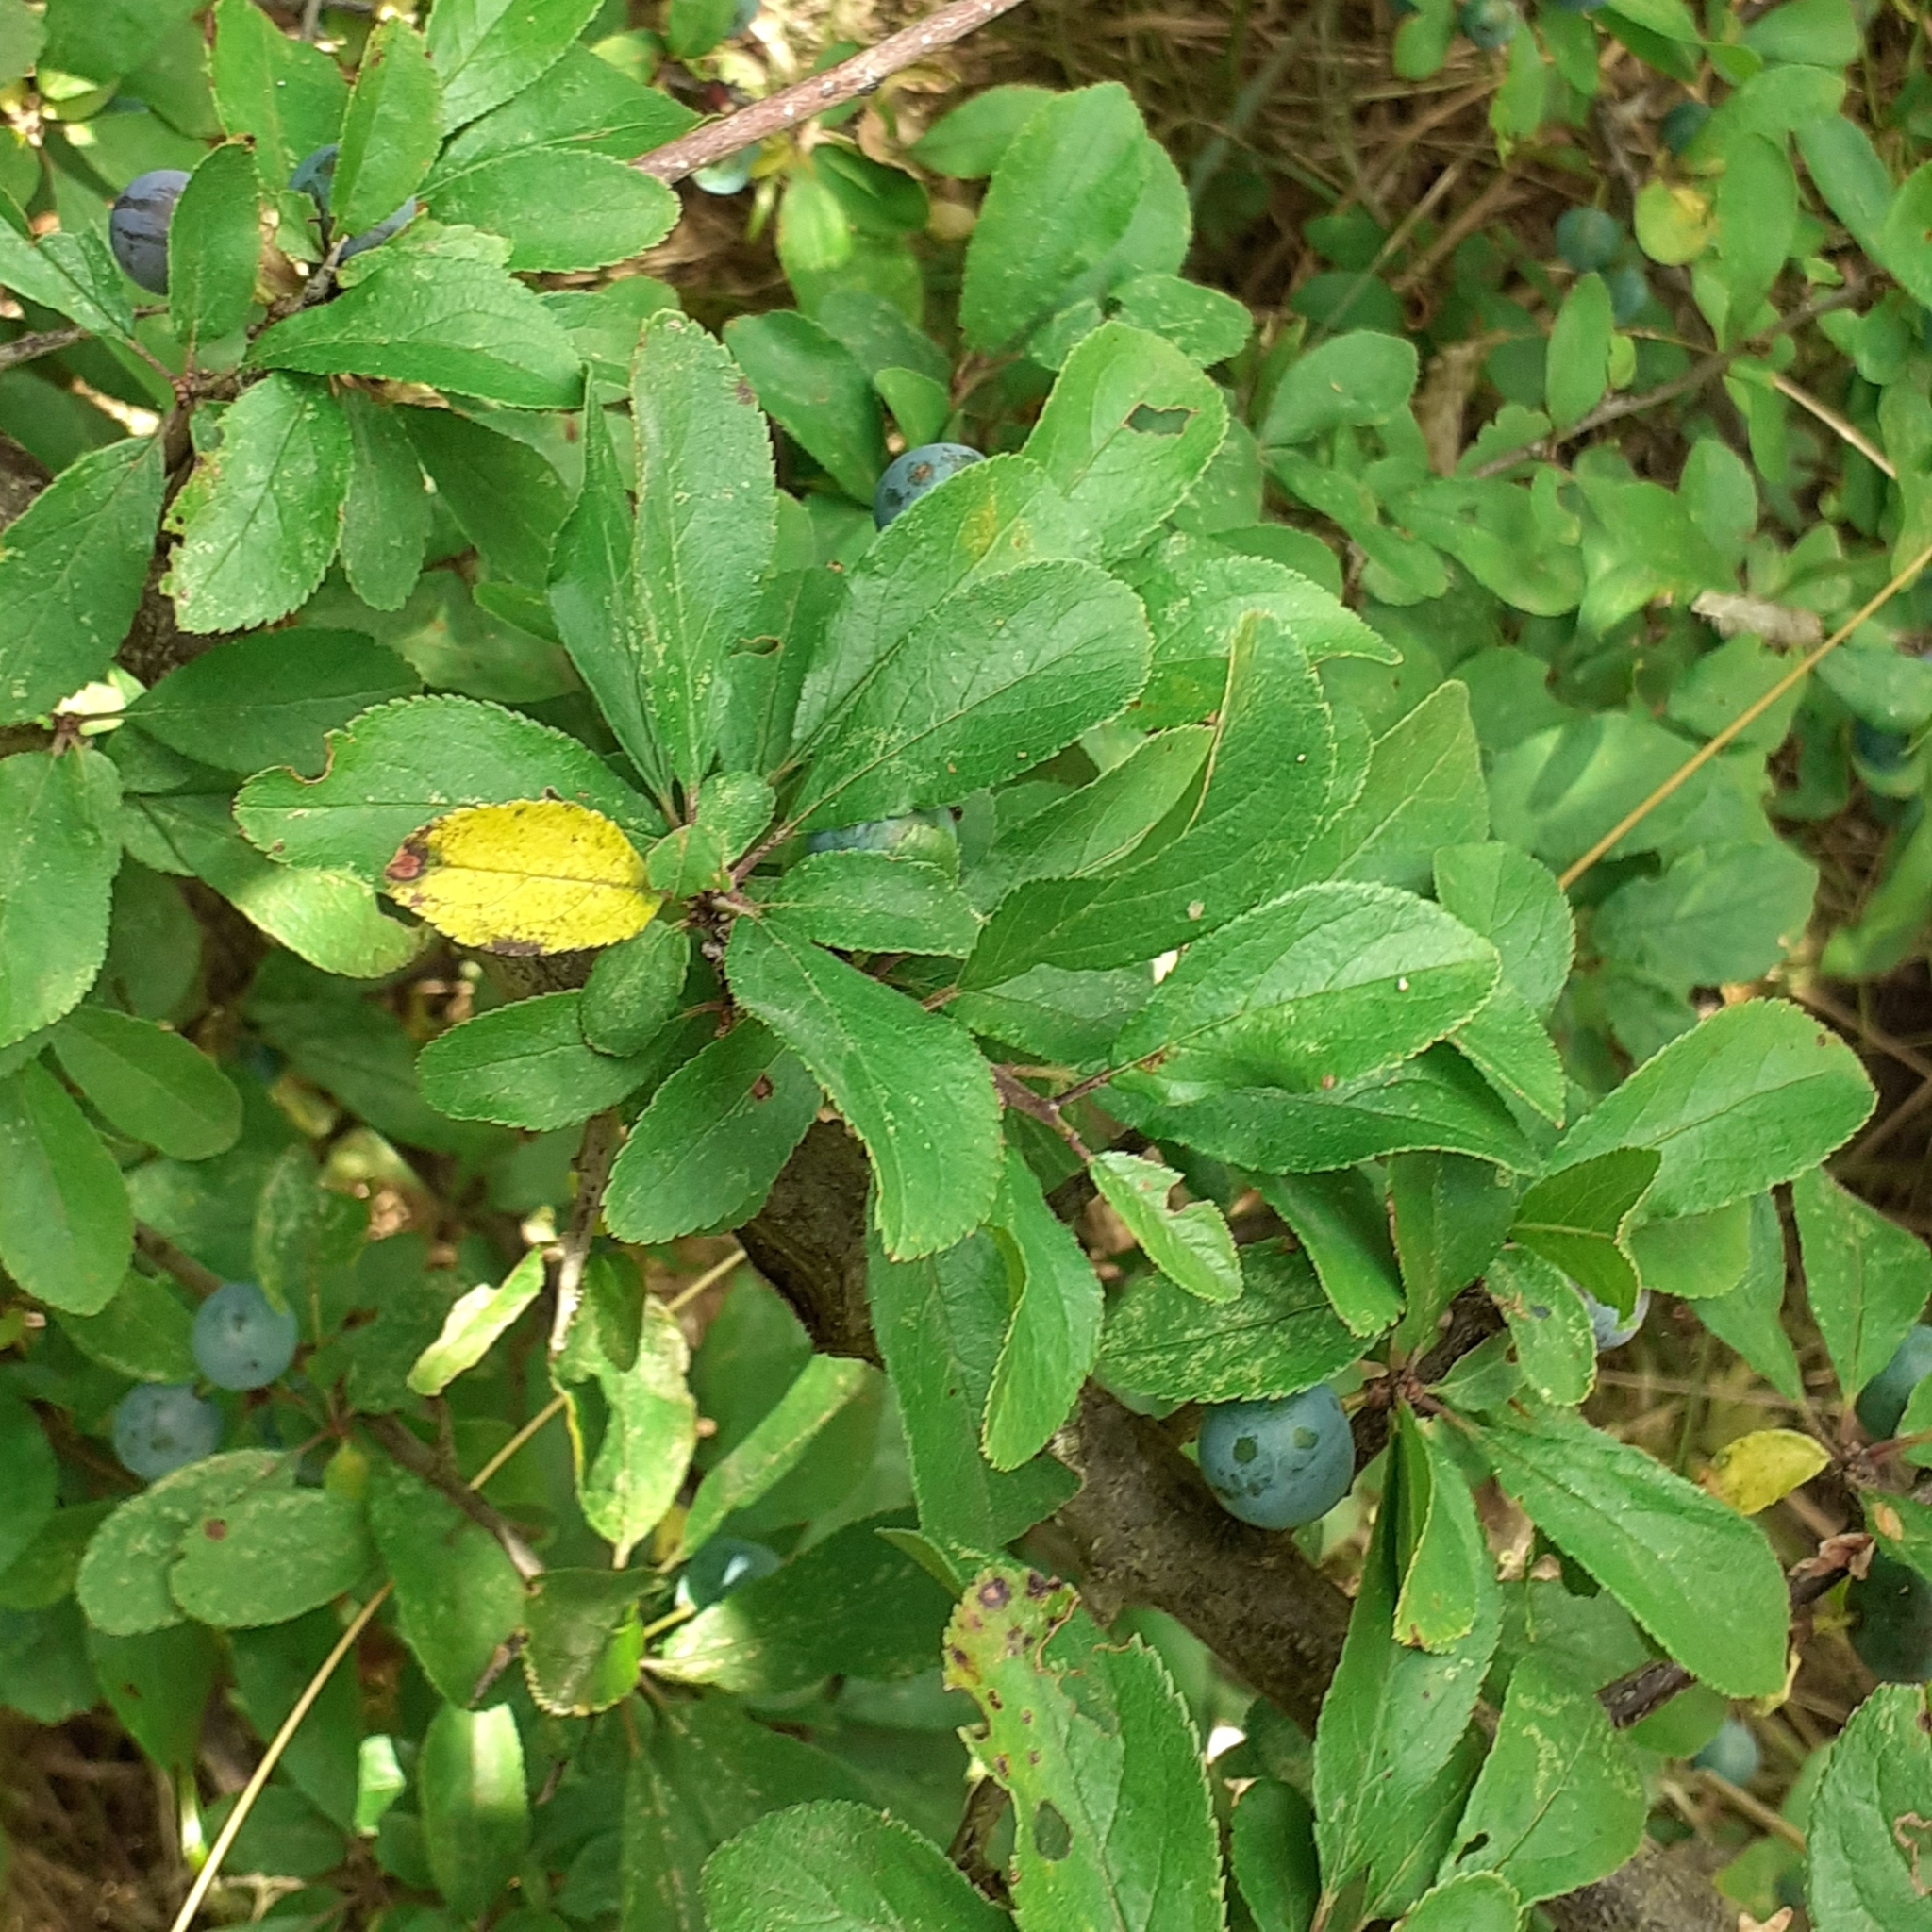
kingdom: Plantae
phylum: Tracheophyta
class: Magnoliopsida
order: Rosales
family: Rosaceae
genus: Prunus
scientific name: Prunus spinosa
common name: Blackthorn
